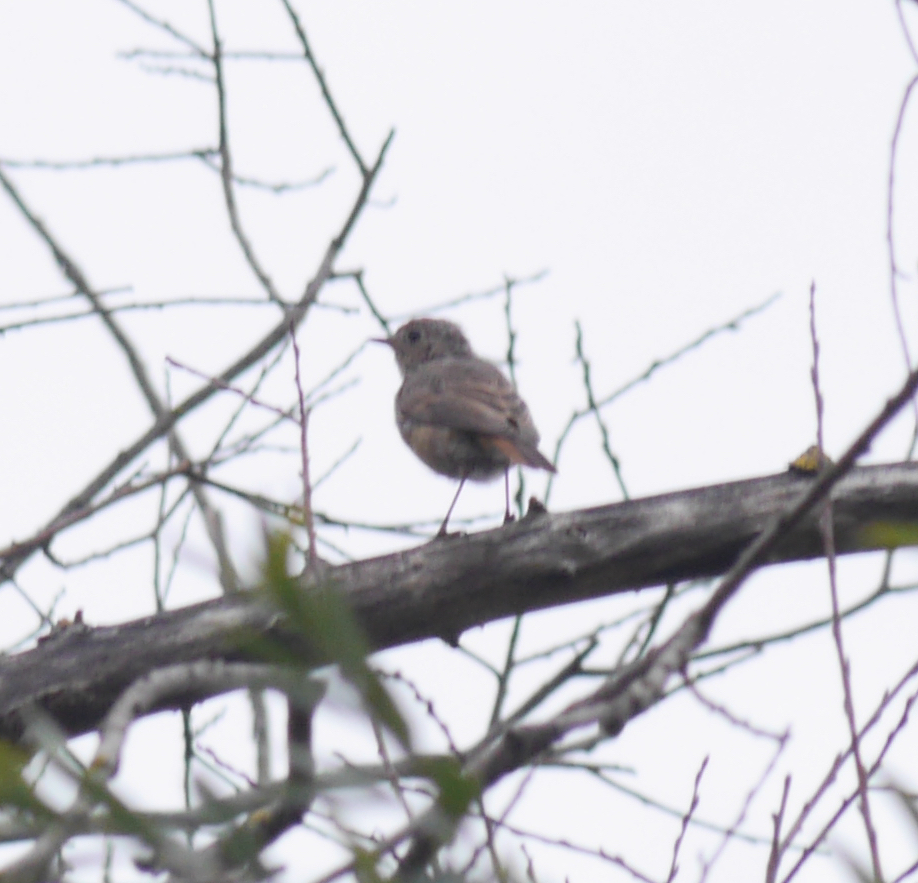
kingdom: Animalia
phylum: Chordata
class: Aves
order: Passeriformes
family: Muscicapidae
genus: Phoenicurus
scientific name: Phoenicurus phoenicurus
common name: Common redstart
